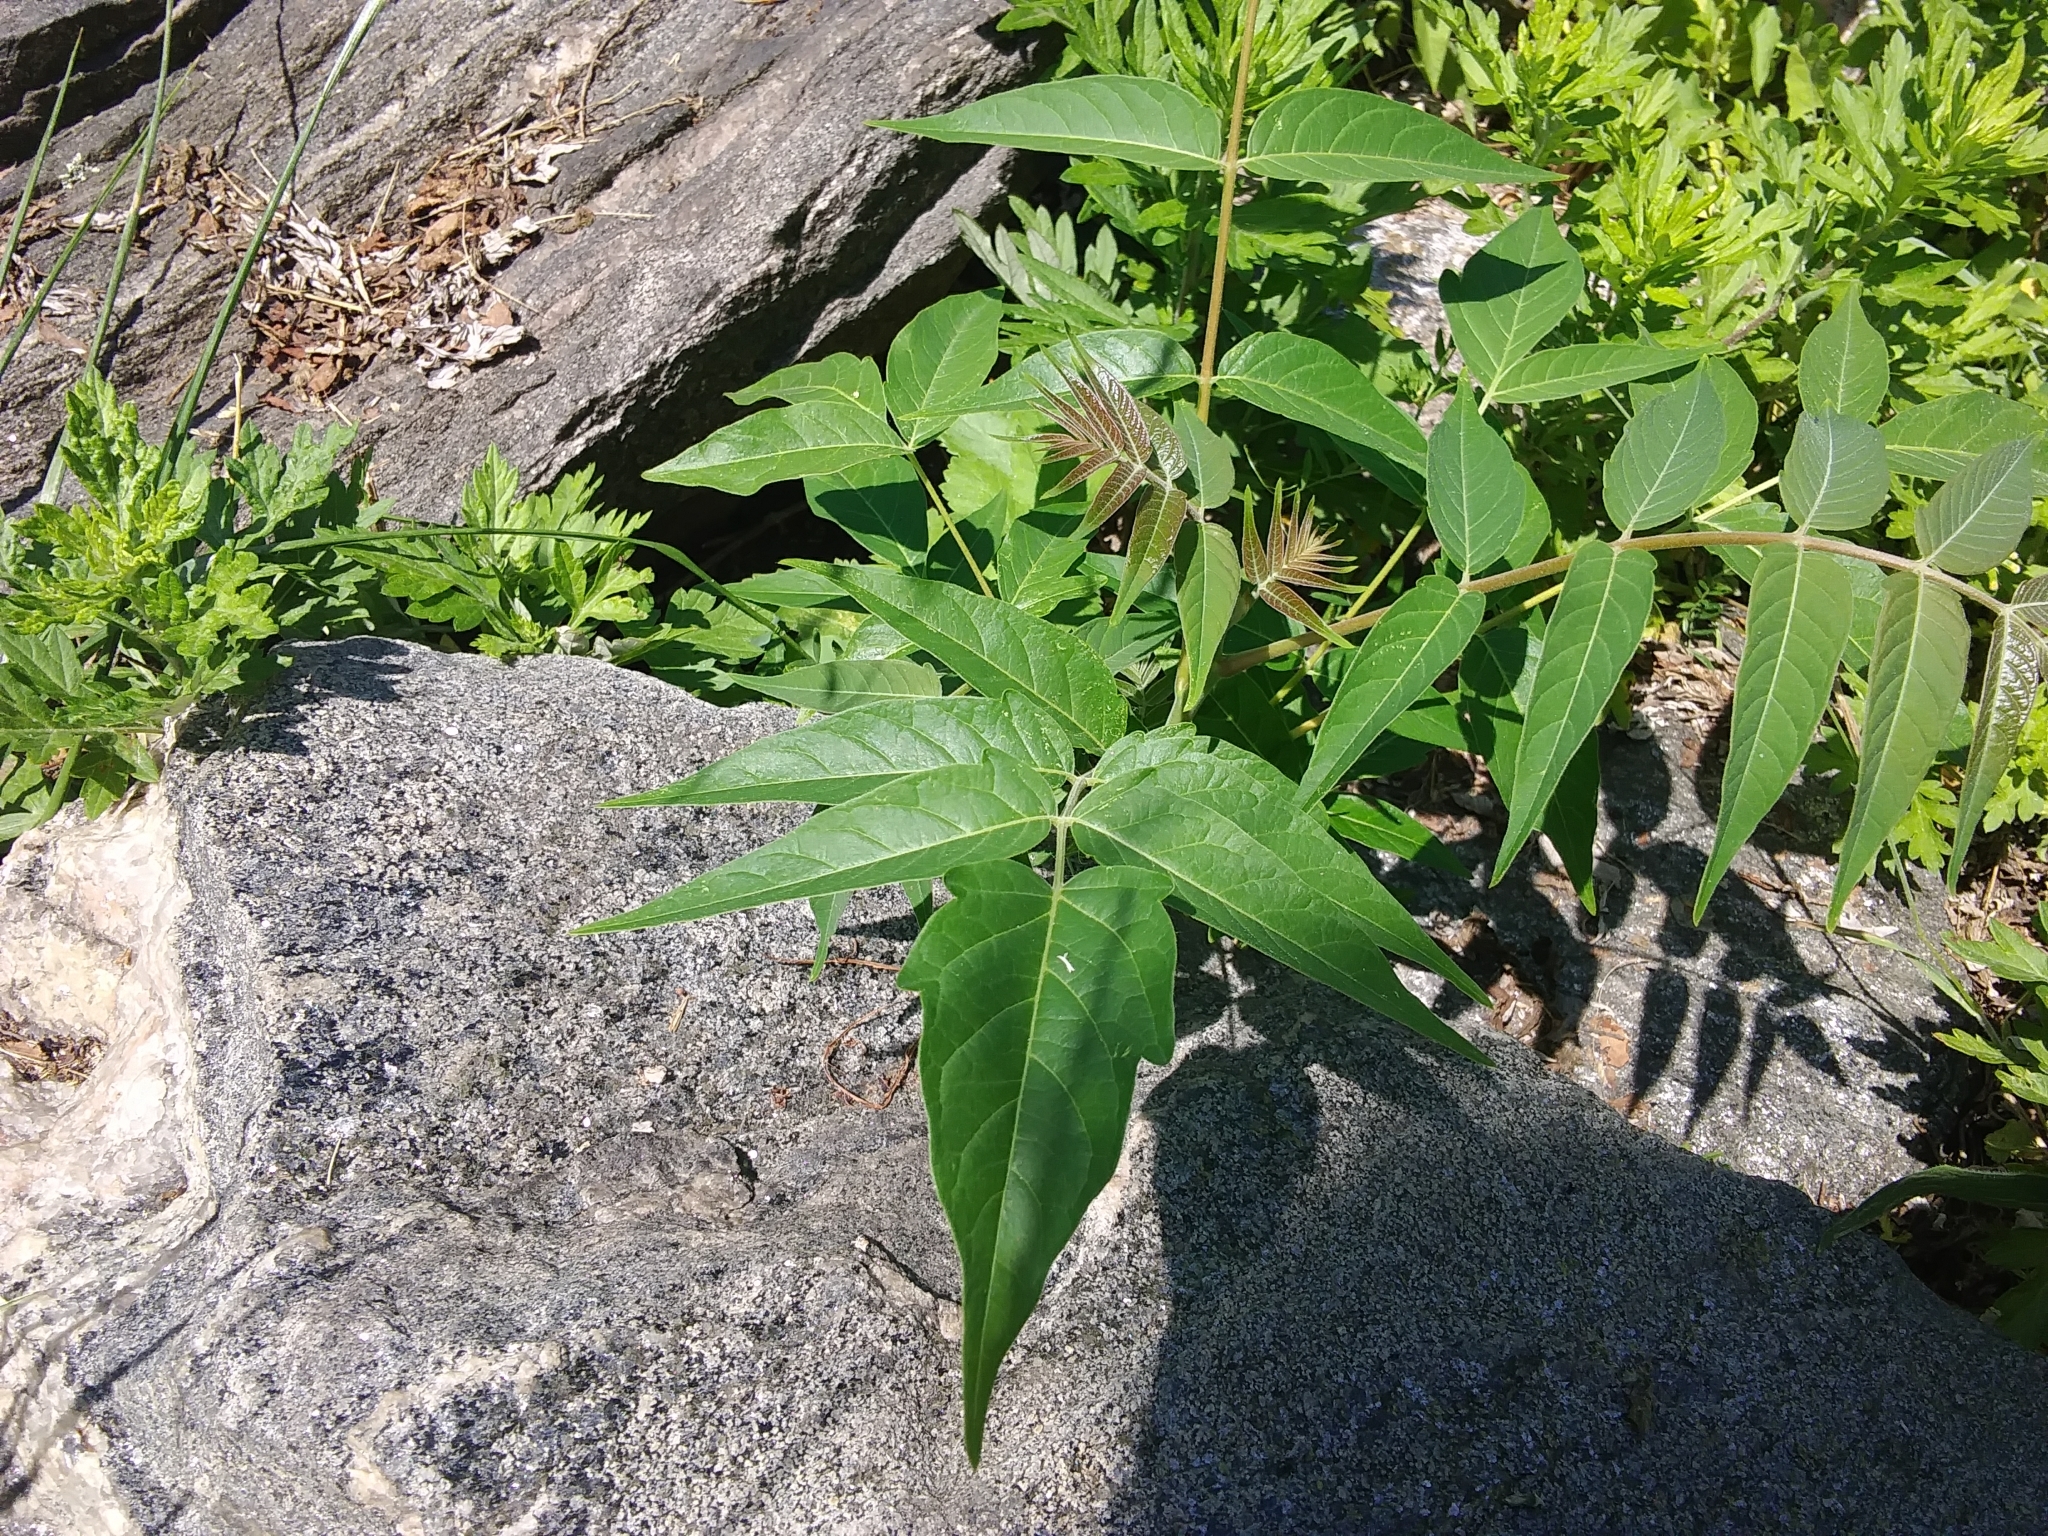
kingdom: Plantae
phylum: Tracheophyta
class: Magnoliopsida
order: Sapindales
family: Simaroubaceae
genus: Ailanthus
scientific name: Ailanthus altissima
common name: Tree-of-heaven
